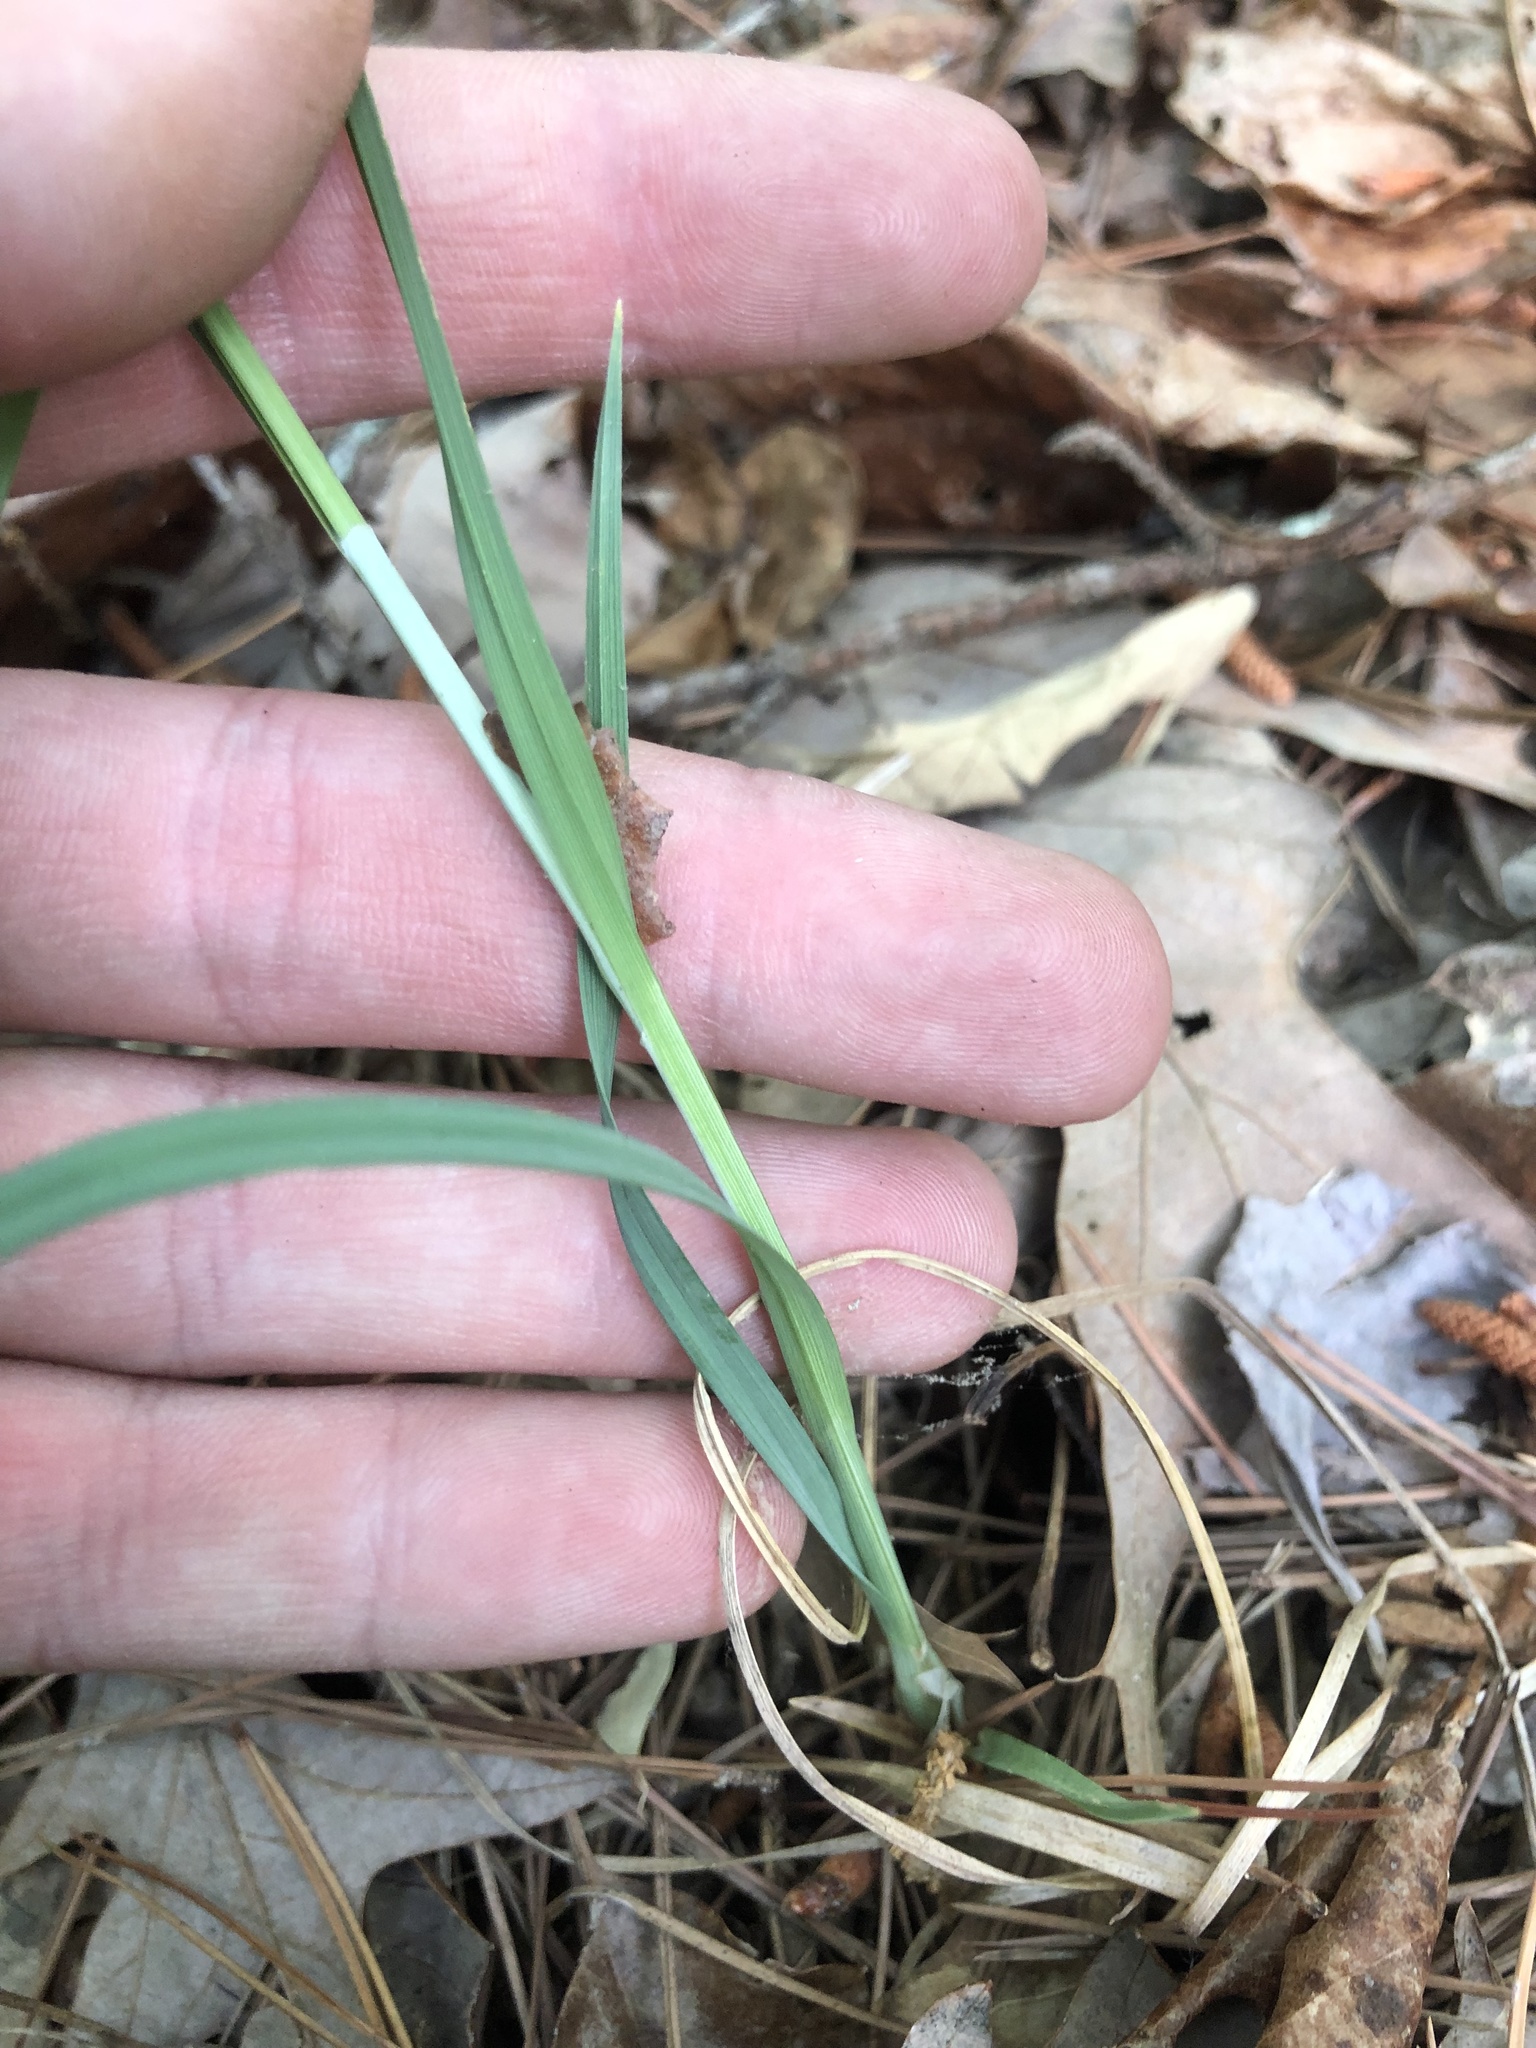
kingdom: Plantae
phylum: Tracheophyta
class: Liliopsida
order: Poales
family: Cyperaceae
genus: Carex
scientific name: Carex meadii
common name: Mead's sedge
